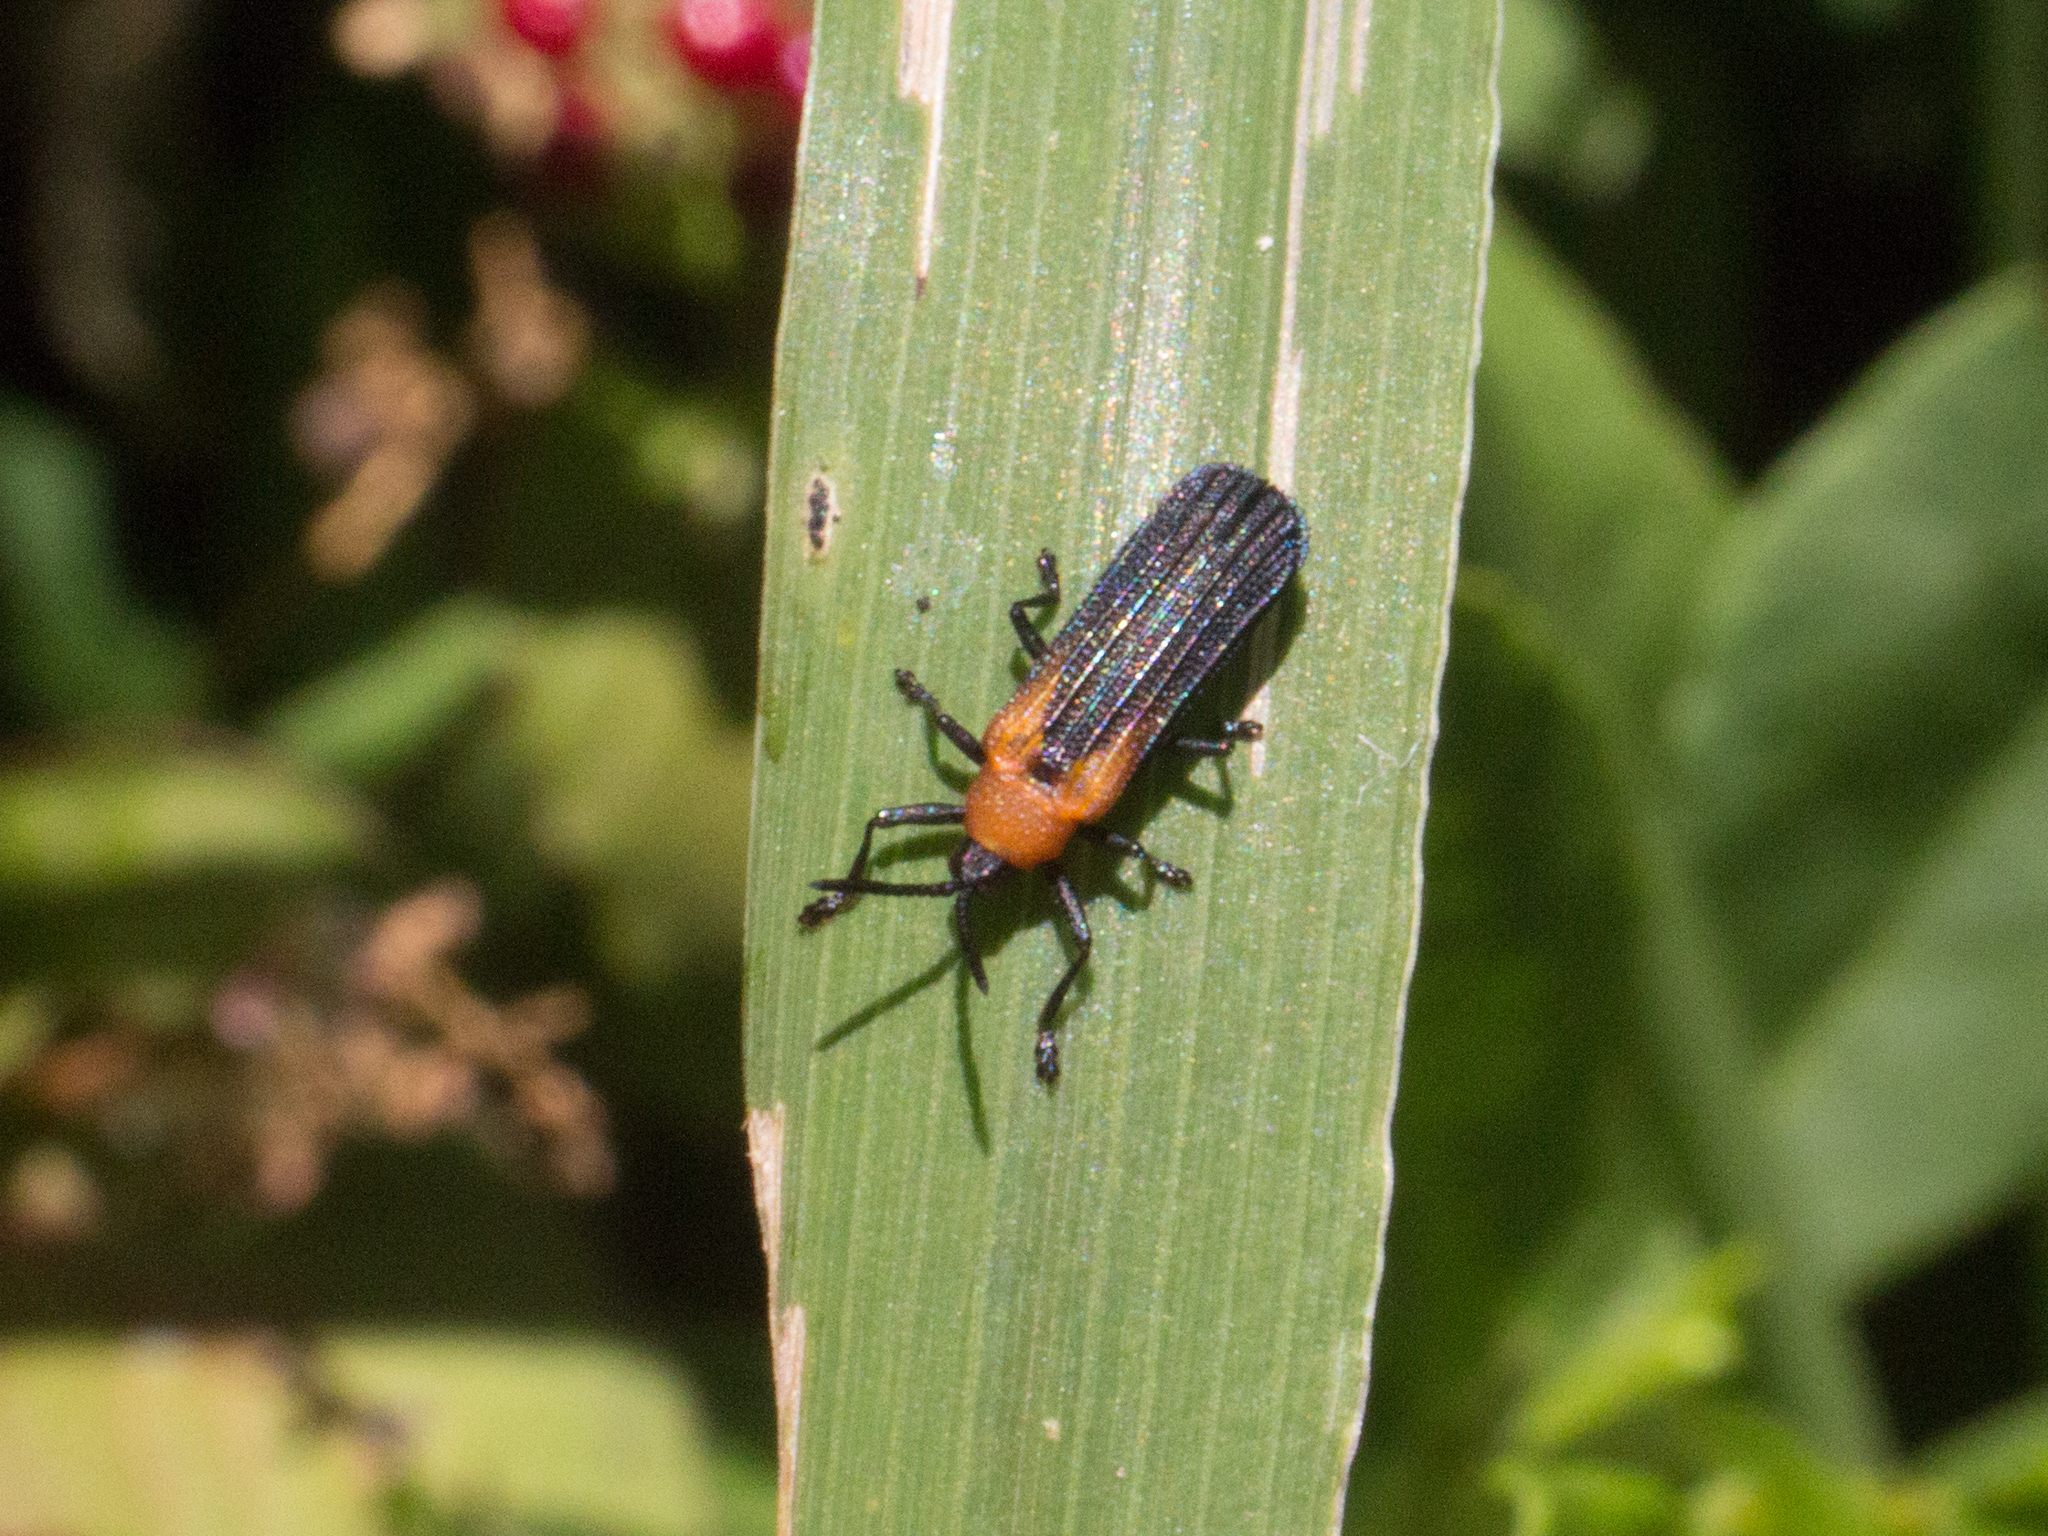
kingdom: Animalia
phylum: Arthropoda
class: Insecta
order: Coleoptera
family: Chrysomelidae
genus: Chalepus
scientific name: Chalepus aurantiacicollis
